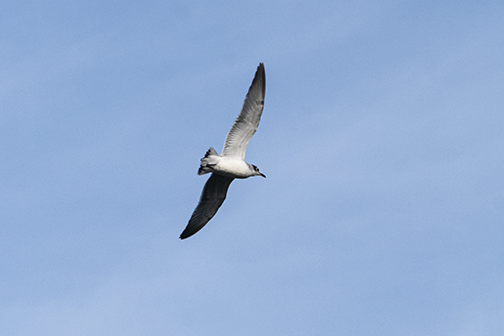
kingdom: Animalia
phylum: Chordata
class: Aves
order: Charadriiformes
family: Laridae
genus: Leucophaeus
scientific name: Leucophaeus pipixcan
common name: Franklin's gull
